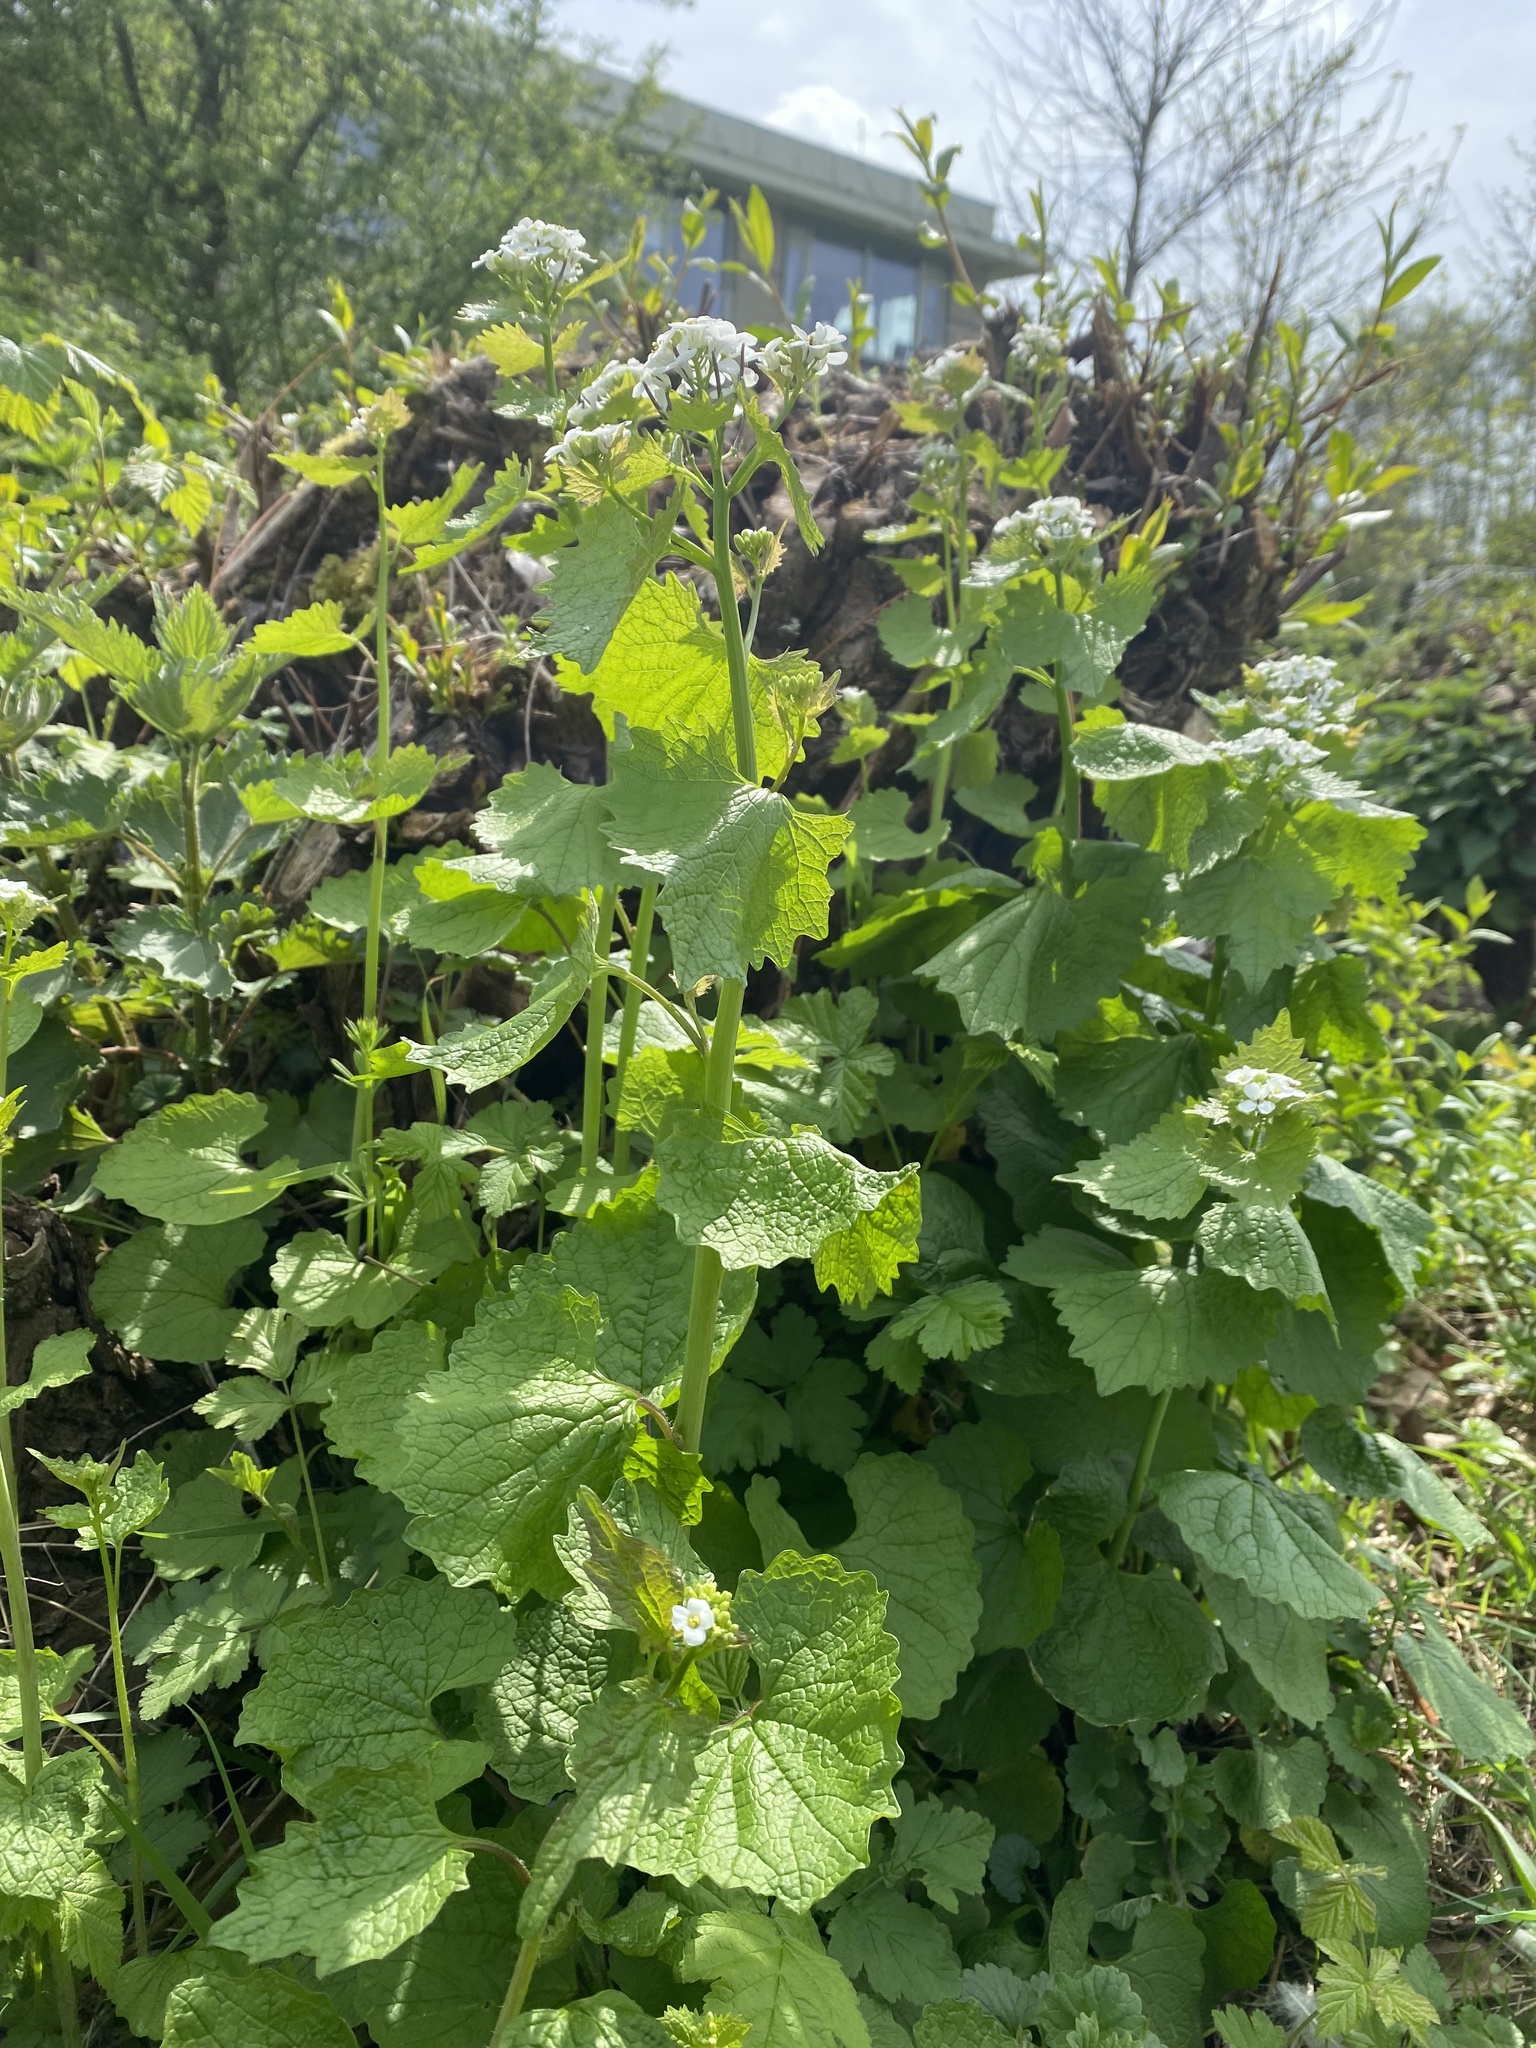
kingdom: Plantae
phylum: Tracheophyta
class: Magnoliopsida
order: Brassicales
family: Brassicaceae
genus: Alliaria
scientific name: Alliaria petiolata
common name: Garlic mustard
